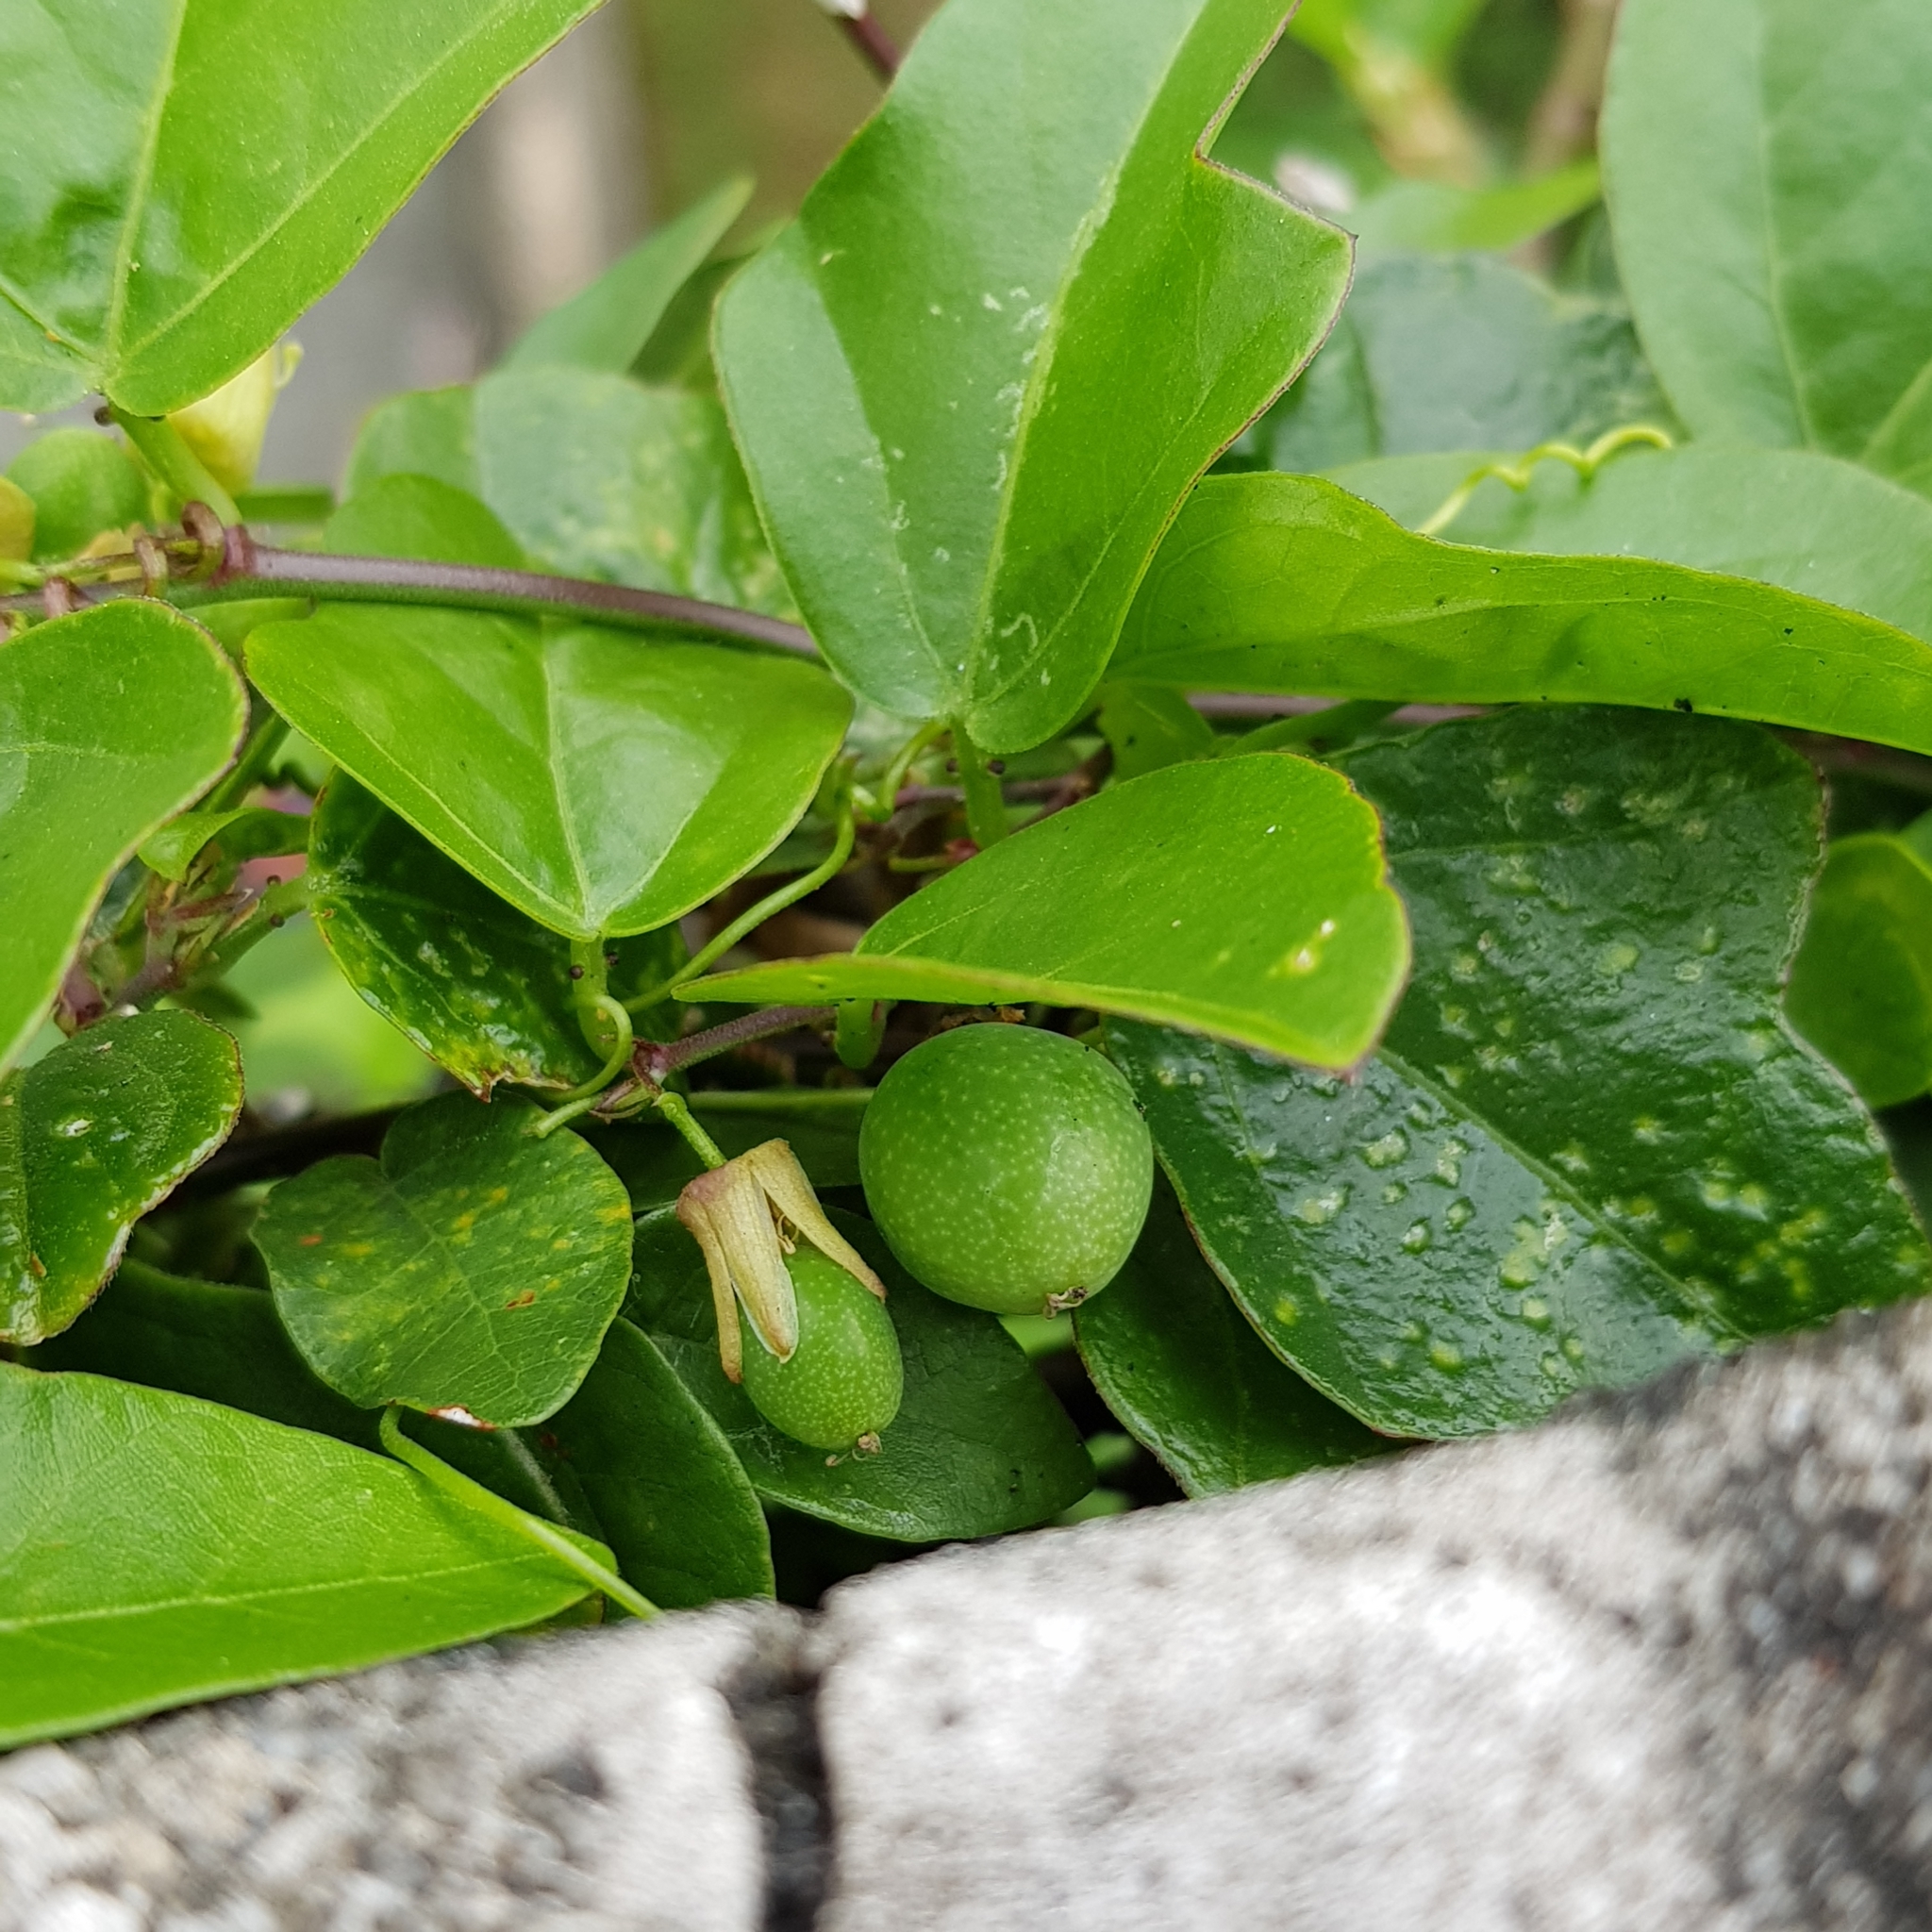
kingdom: Plantae
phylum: Tracheophyta
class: Magnoliopsida
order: Malpighiales
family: Passifloraceae
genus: Passiflora
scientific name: Passiflora suberosa
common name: Wild passionfruit
